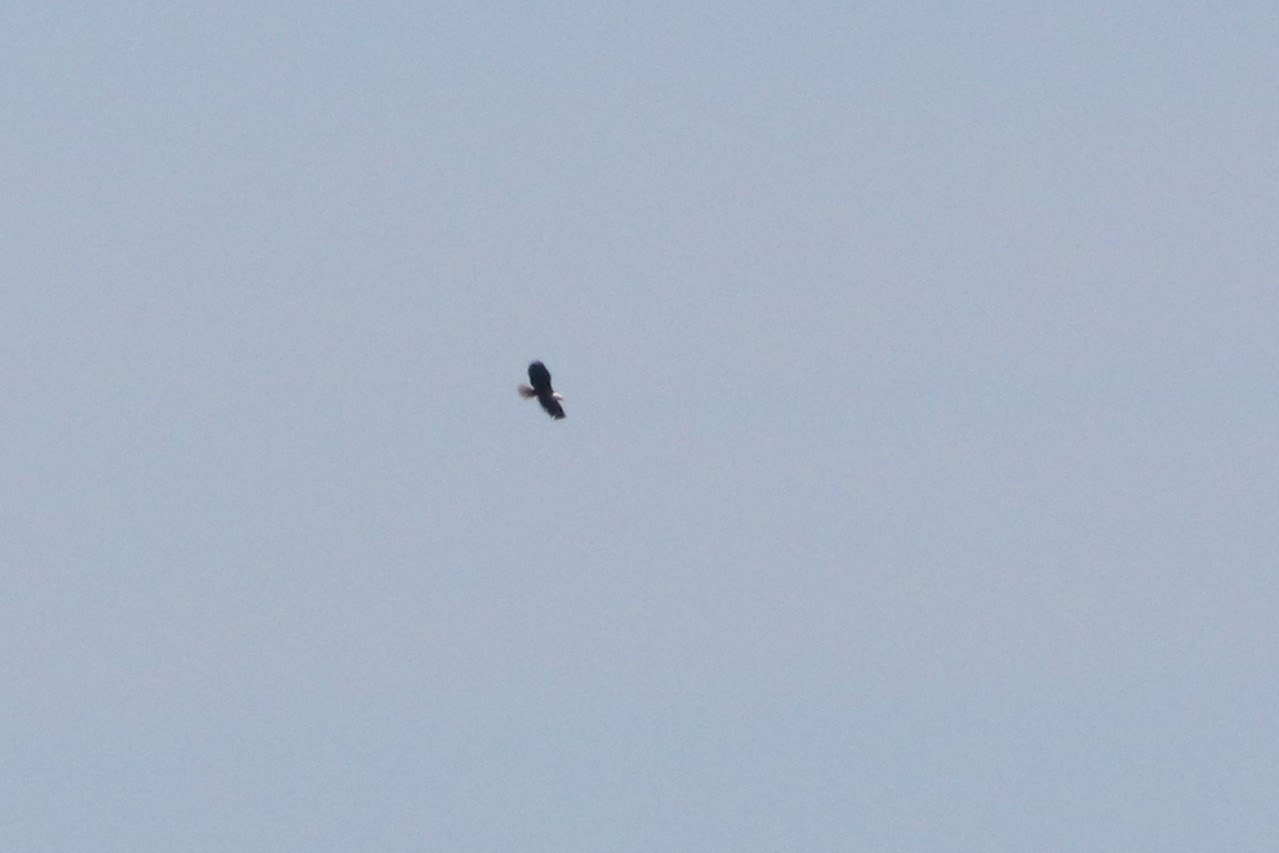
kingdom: Animalia
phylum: Chordata
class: Aves
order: Accipitriformes
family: Accipitridae
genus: Haliaeetus
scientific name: Haliaeetus leucocephalus
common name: Bald eagle
